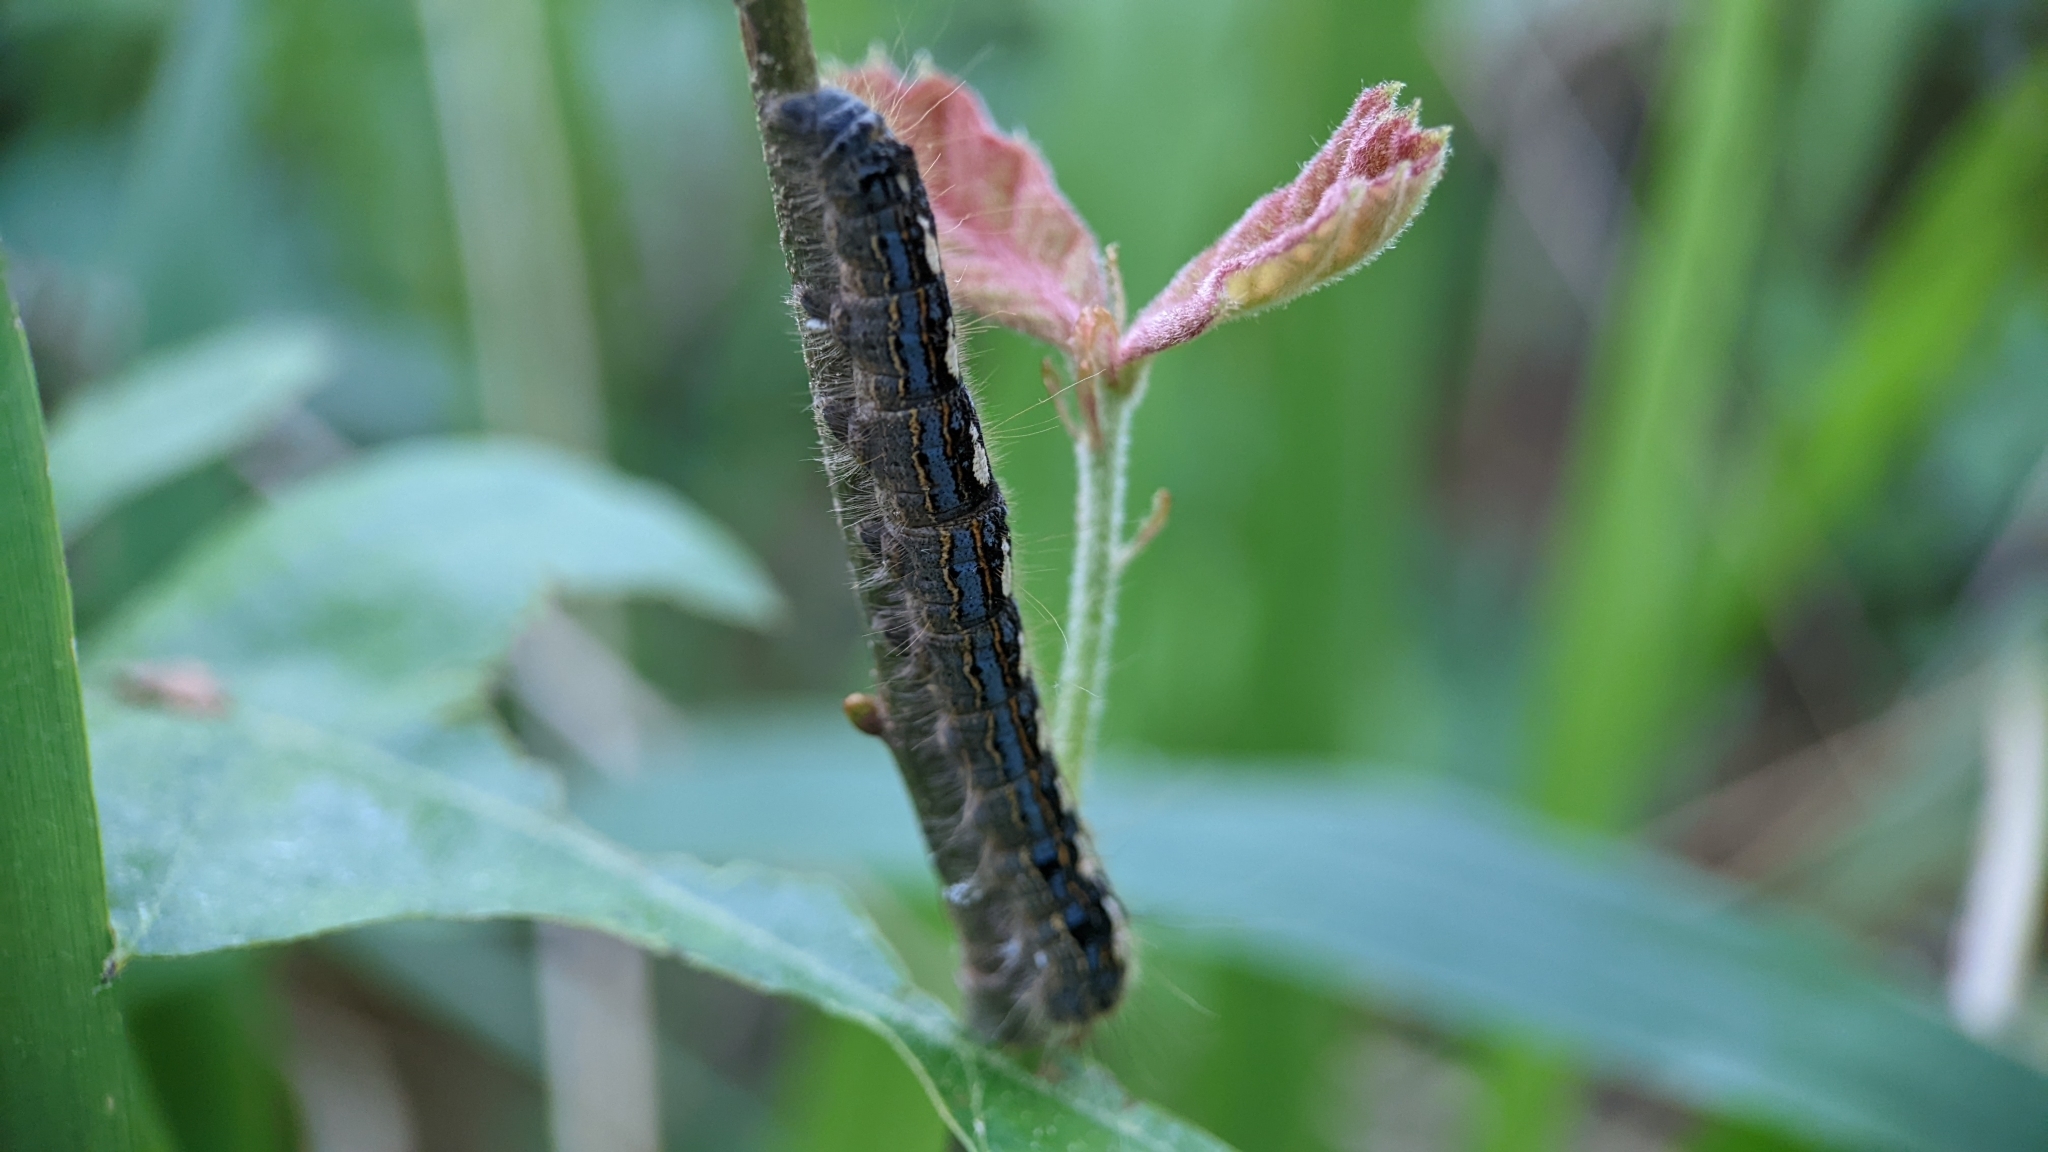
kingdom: Animalia
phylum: Arthropoda
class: Insecta
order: Lepidoptera
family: Lasiocampidae
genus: Malacosoma
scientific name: Malacosoma disstria
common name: Forest tent caterpillar
